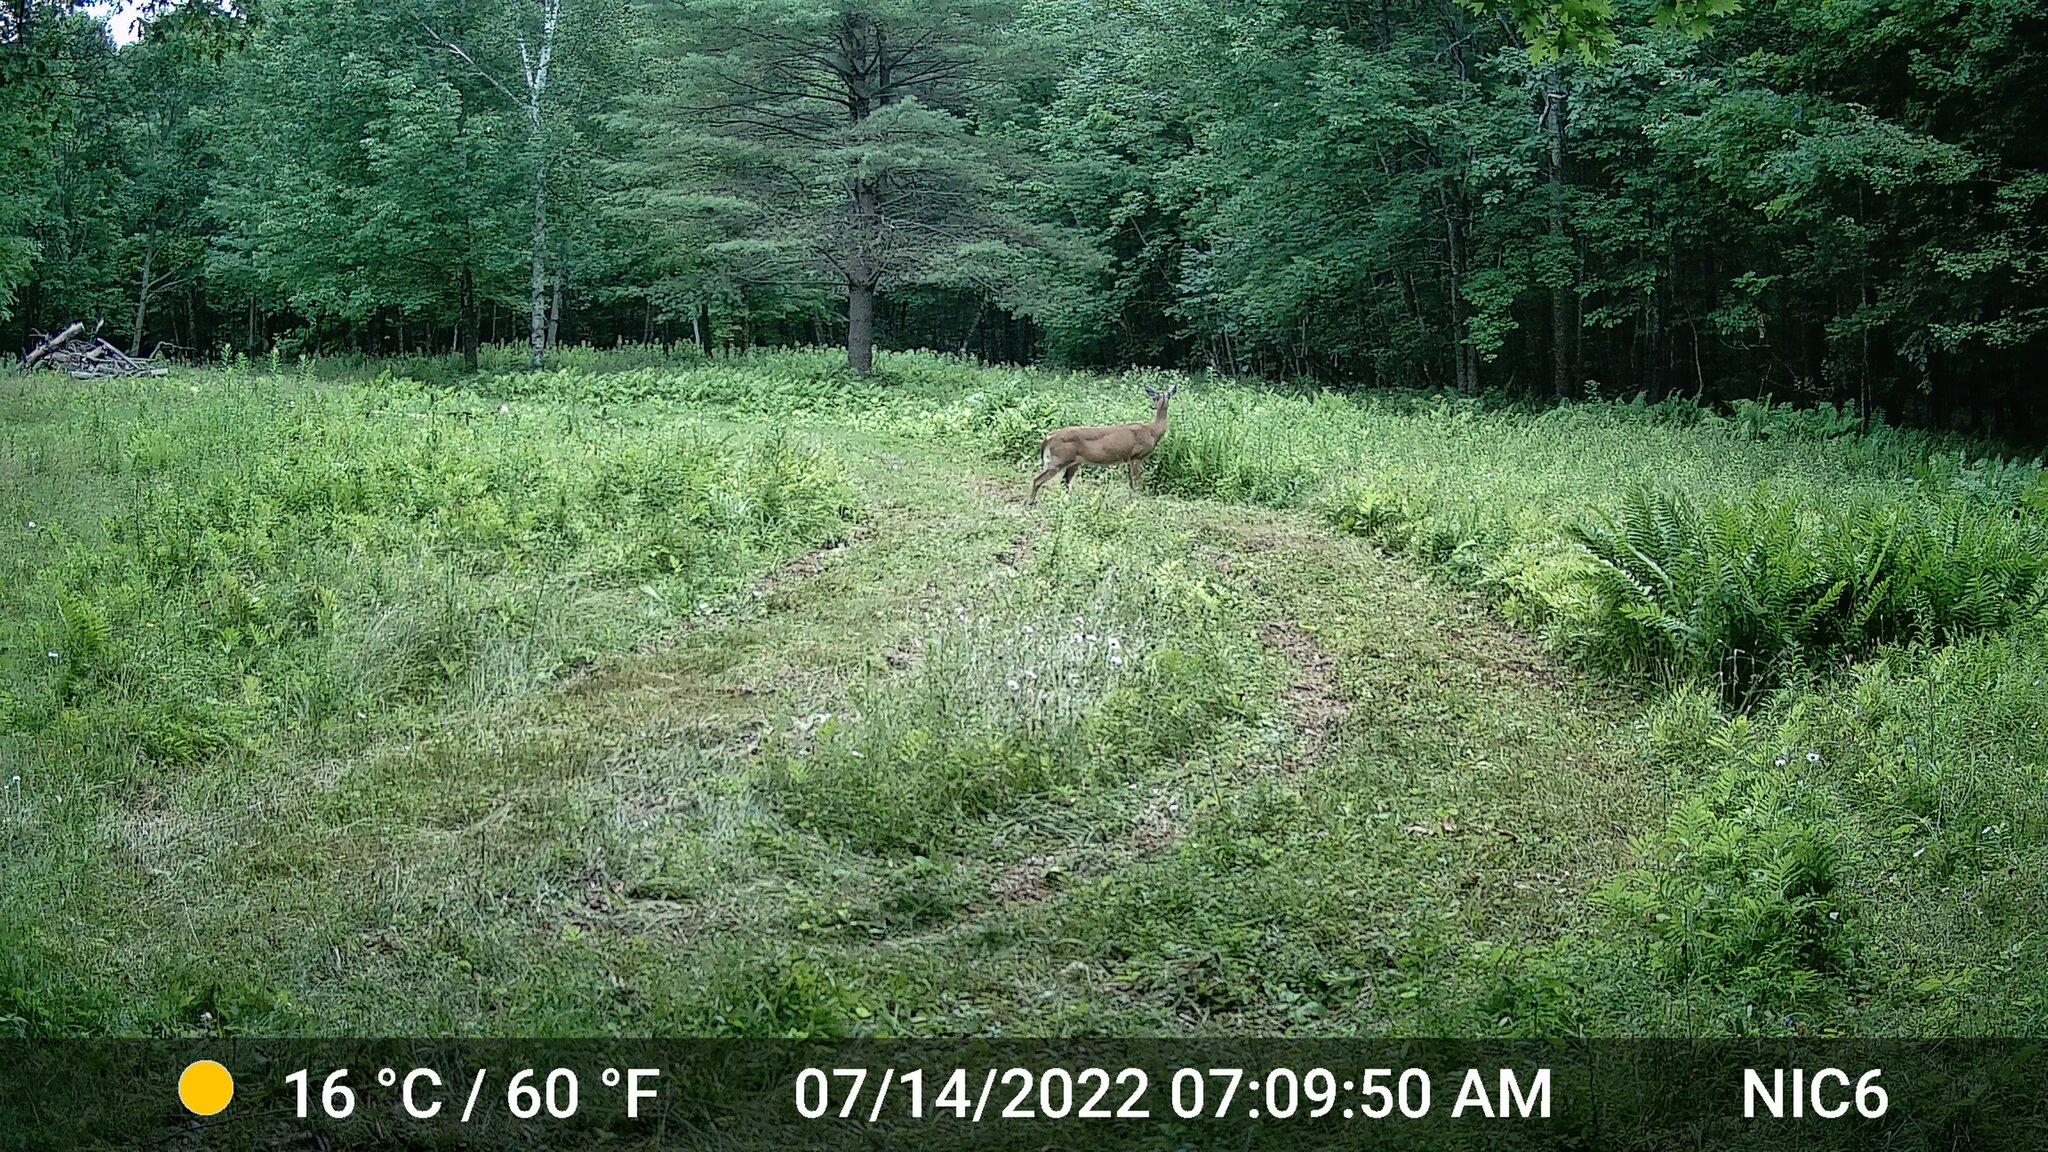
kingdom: Animalia
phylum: Chordata
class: Mammalia
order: Artiodactyla
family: Cervidae
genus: Odocoileus
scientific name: Odocoileus virginianus
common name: White-tailed deer
